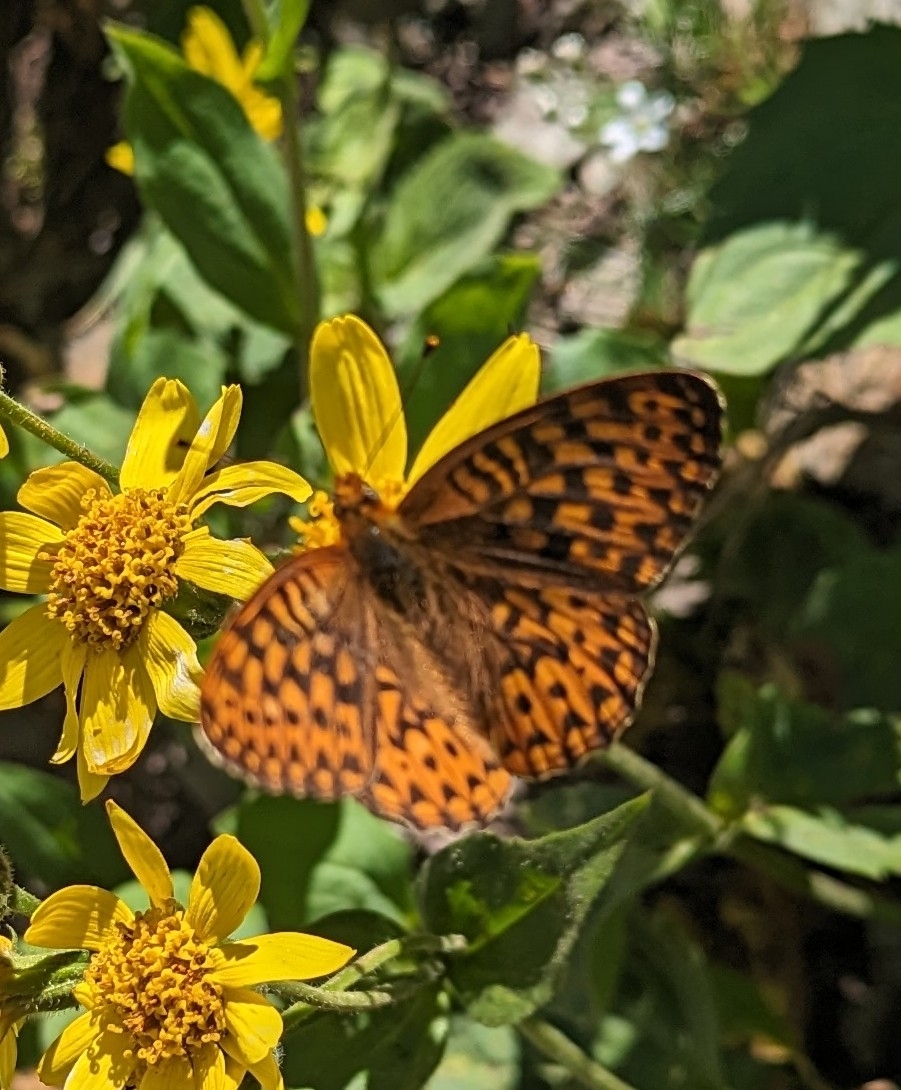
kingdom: Animalia
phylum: Arthropoda
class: Insecta
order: Lepidoptera
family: Nymphalidae
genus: Speyeria
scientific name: Speyeria hydaspe
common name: Hydaspe fritillary
